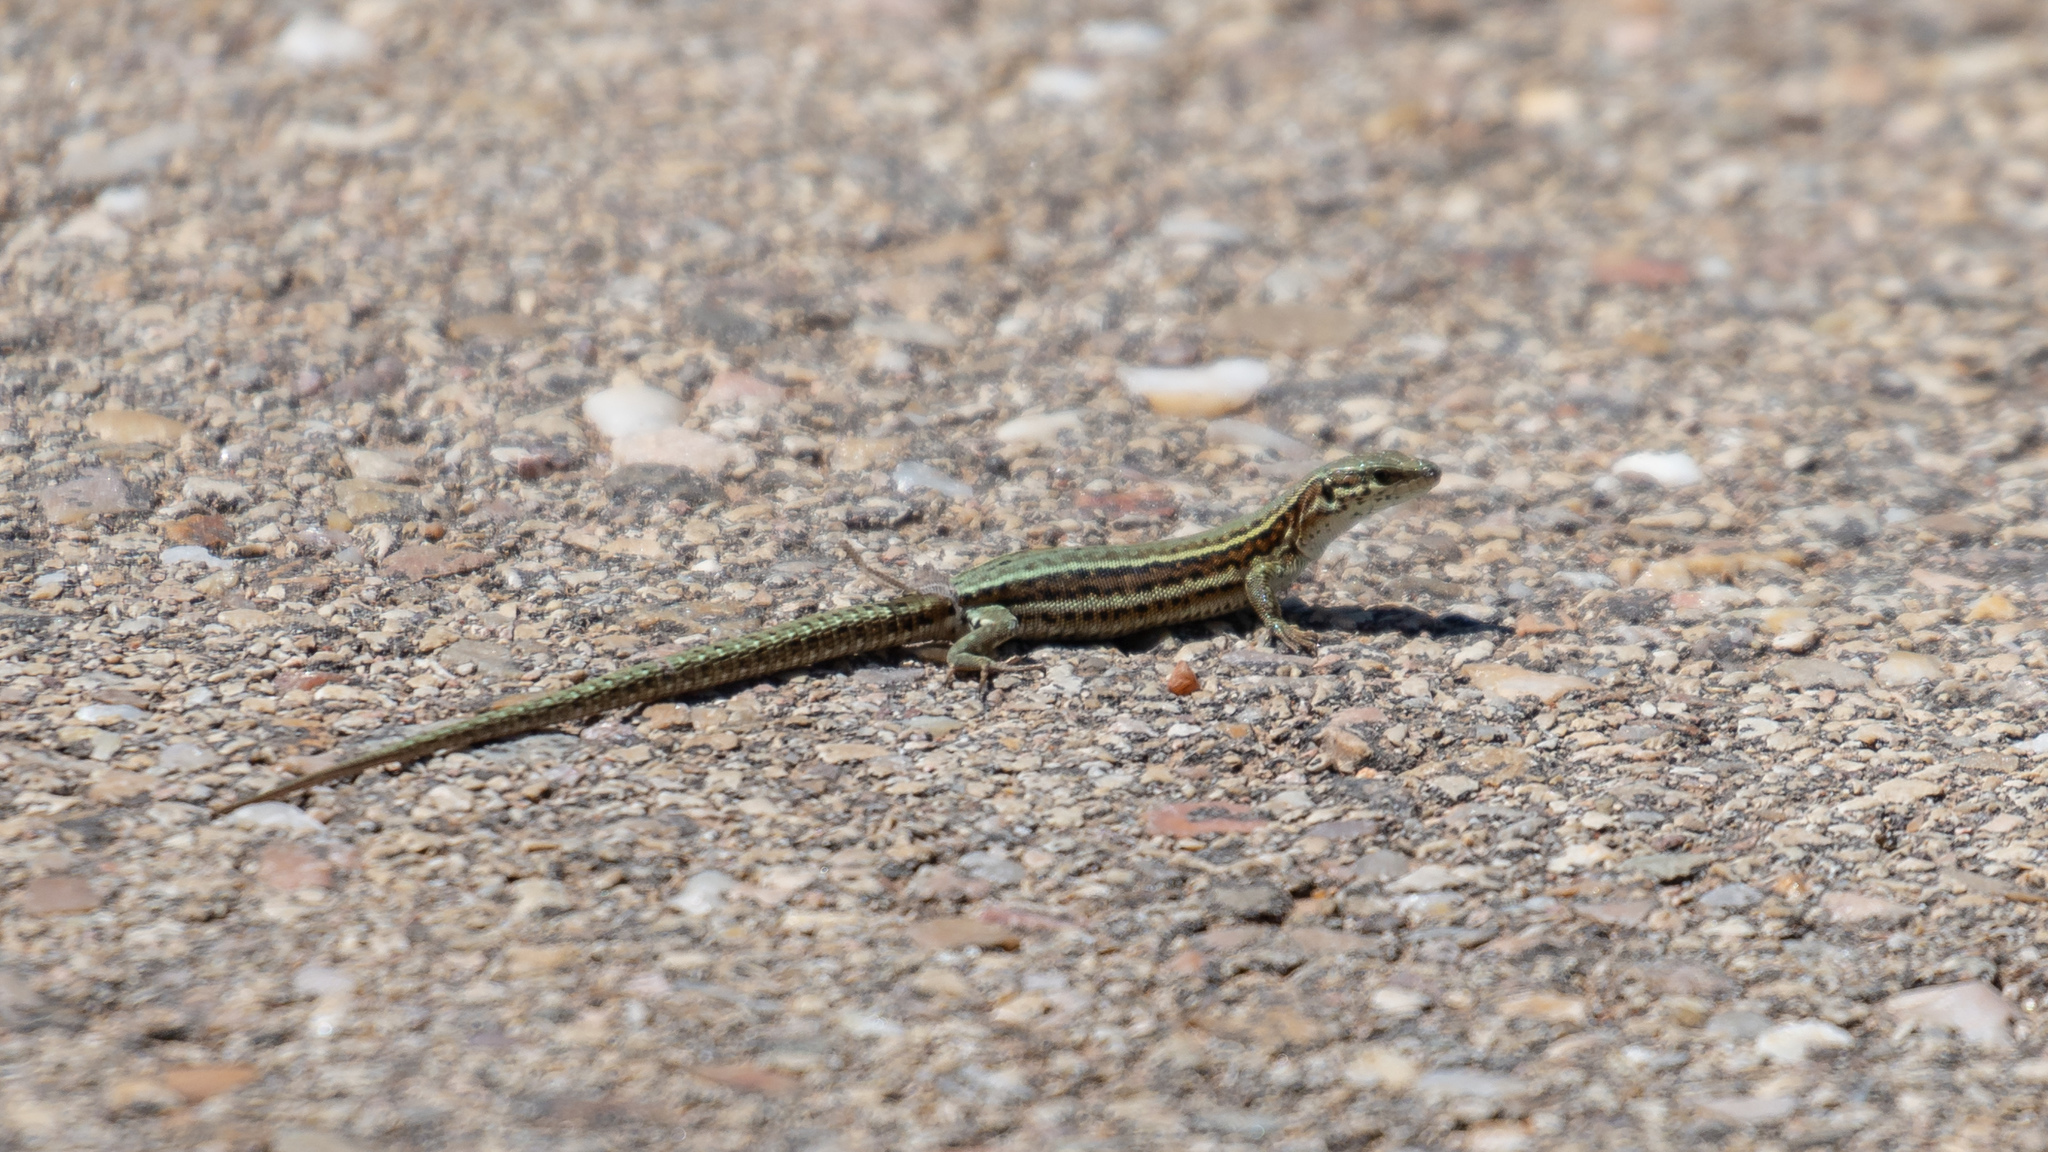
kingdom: Animalia
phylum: Chordata
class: Squamata
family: Lacertidae
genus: Podarcis
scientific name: Podarcis liolepis
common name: Catalonian wall lizard
